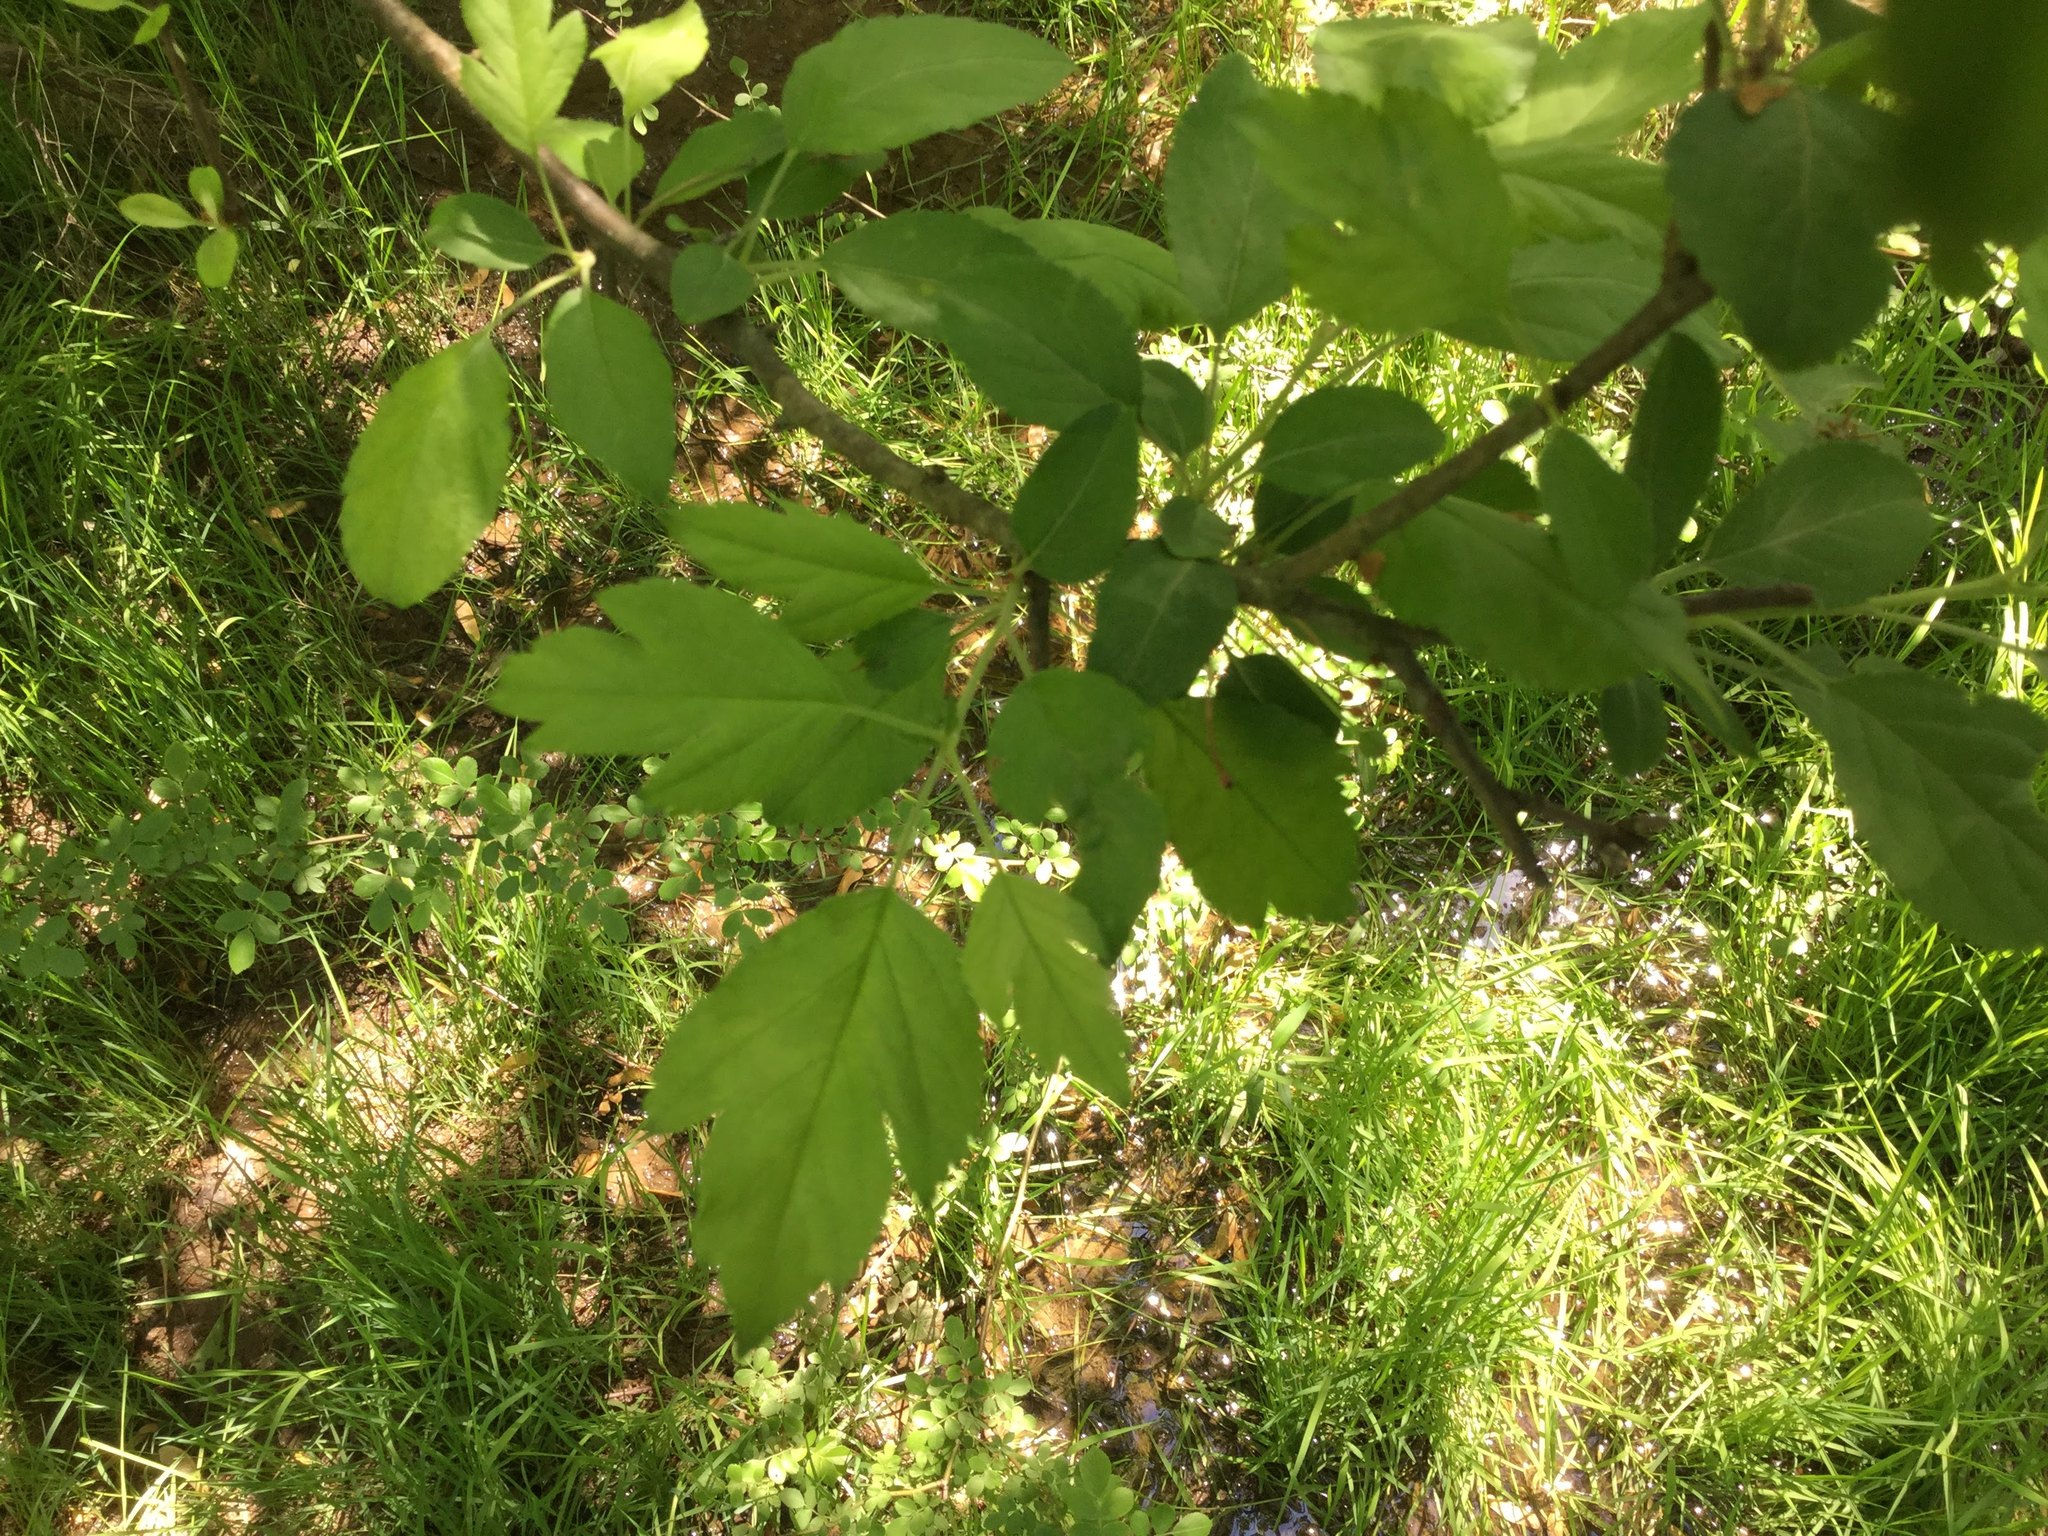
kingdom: Plantae
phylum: Tracheophyta
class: Magnoliopsida
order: Sapindales
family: Sapindaceae
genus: Acer
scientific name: Acer negundo
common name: Ashleaf maple
